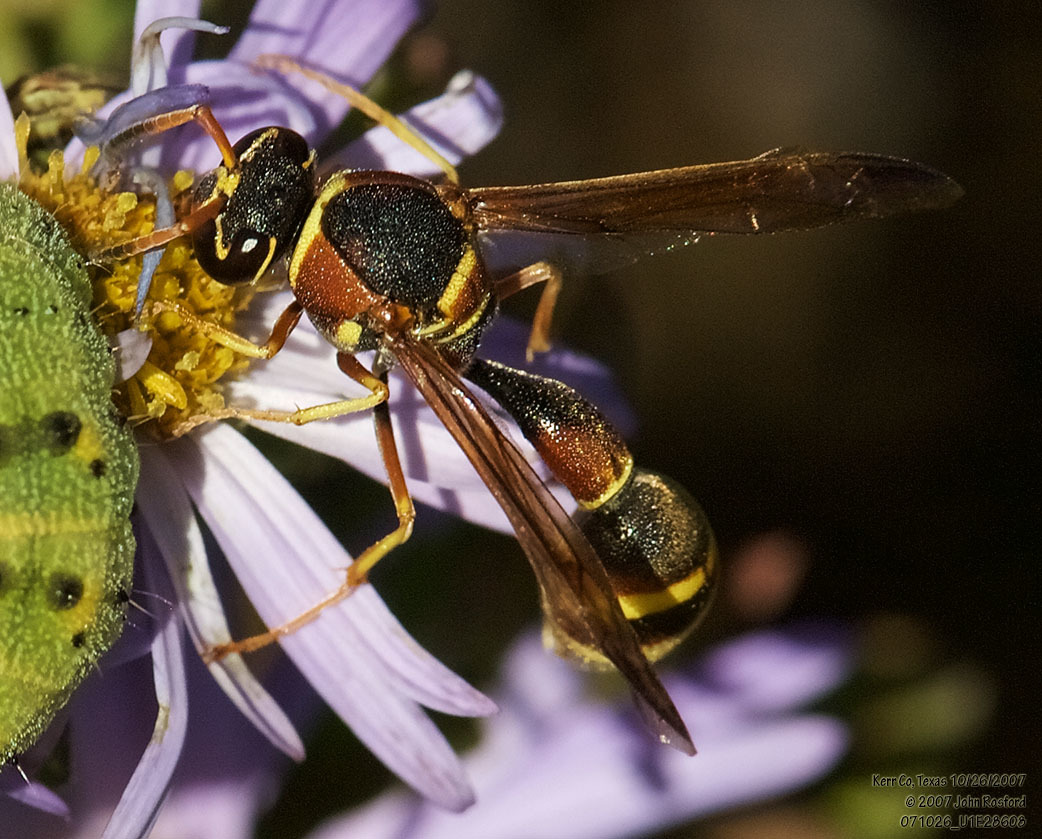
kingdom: Animalia
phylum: Arthropoda
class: Insecta
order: Hymenoptera
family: Vespidae
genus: Eumenes
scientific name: Eumenes smithii
